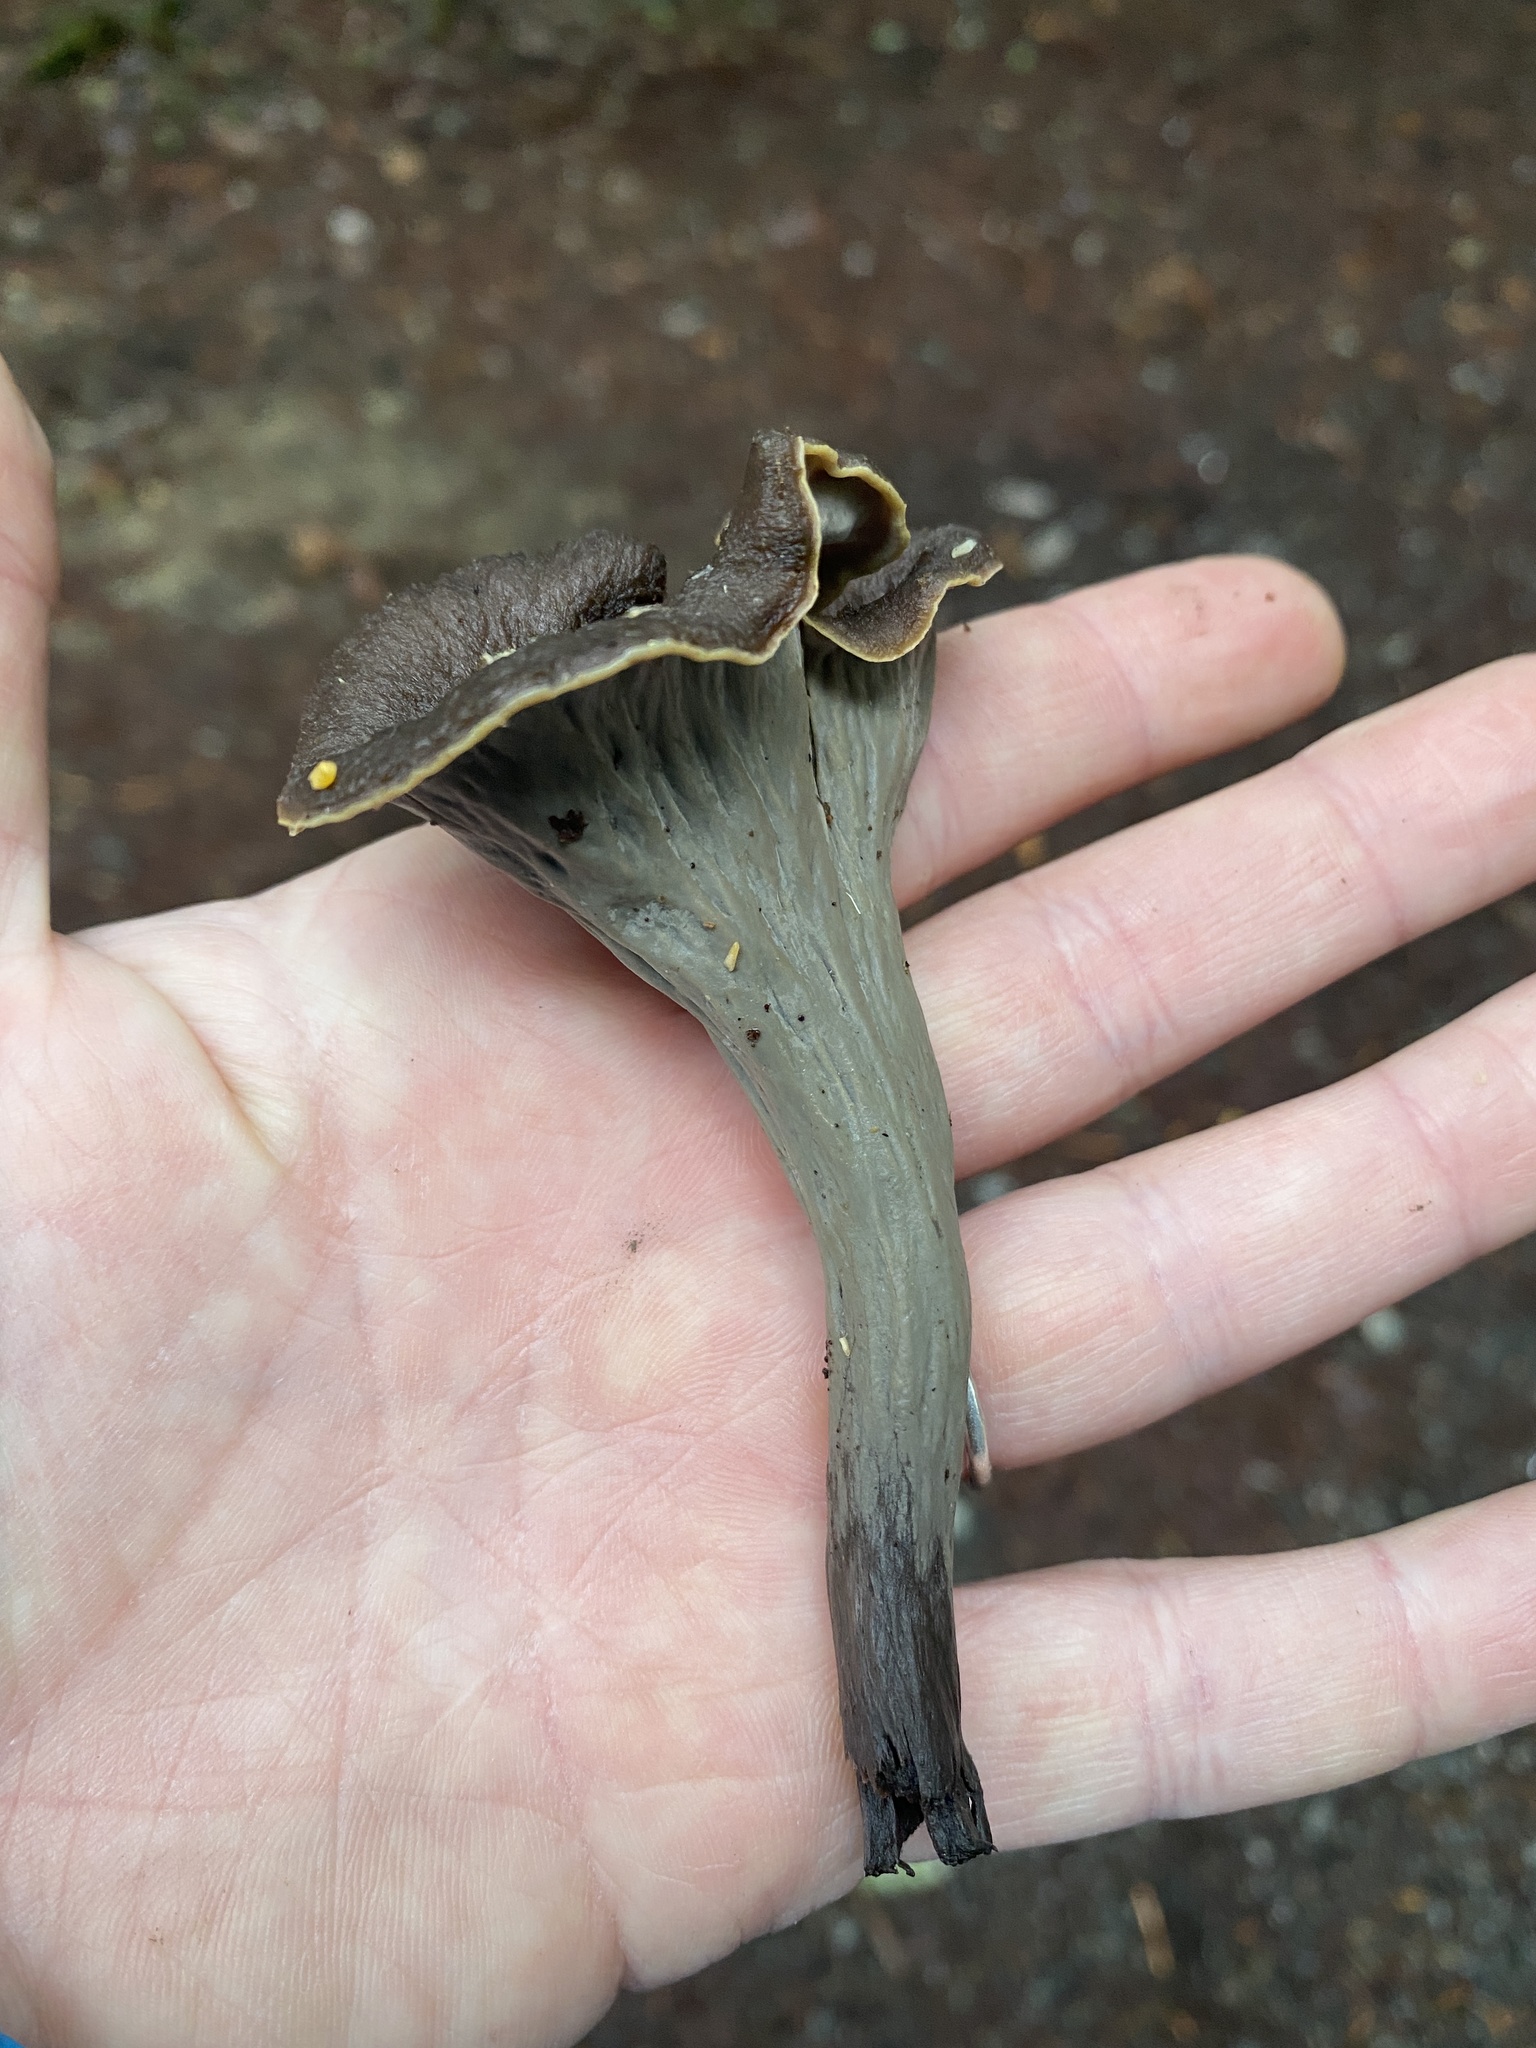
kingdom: Fungi
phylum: Basidiomycota
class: Agaricomycetes
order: Cantharellales
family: Hydnaceae
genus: Craterellus
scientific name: Craterellus calicornucopioides
